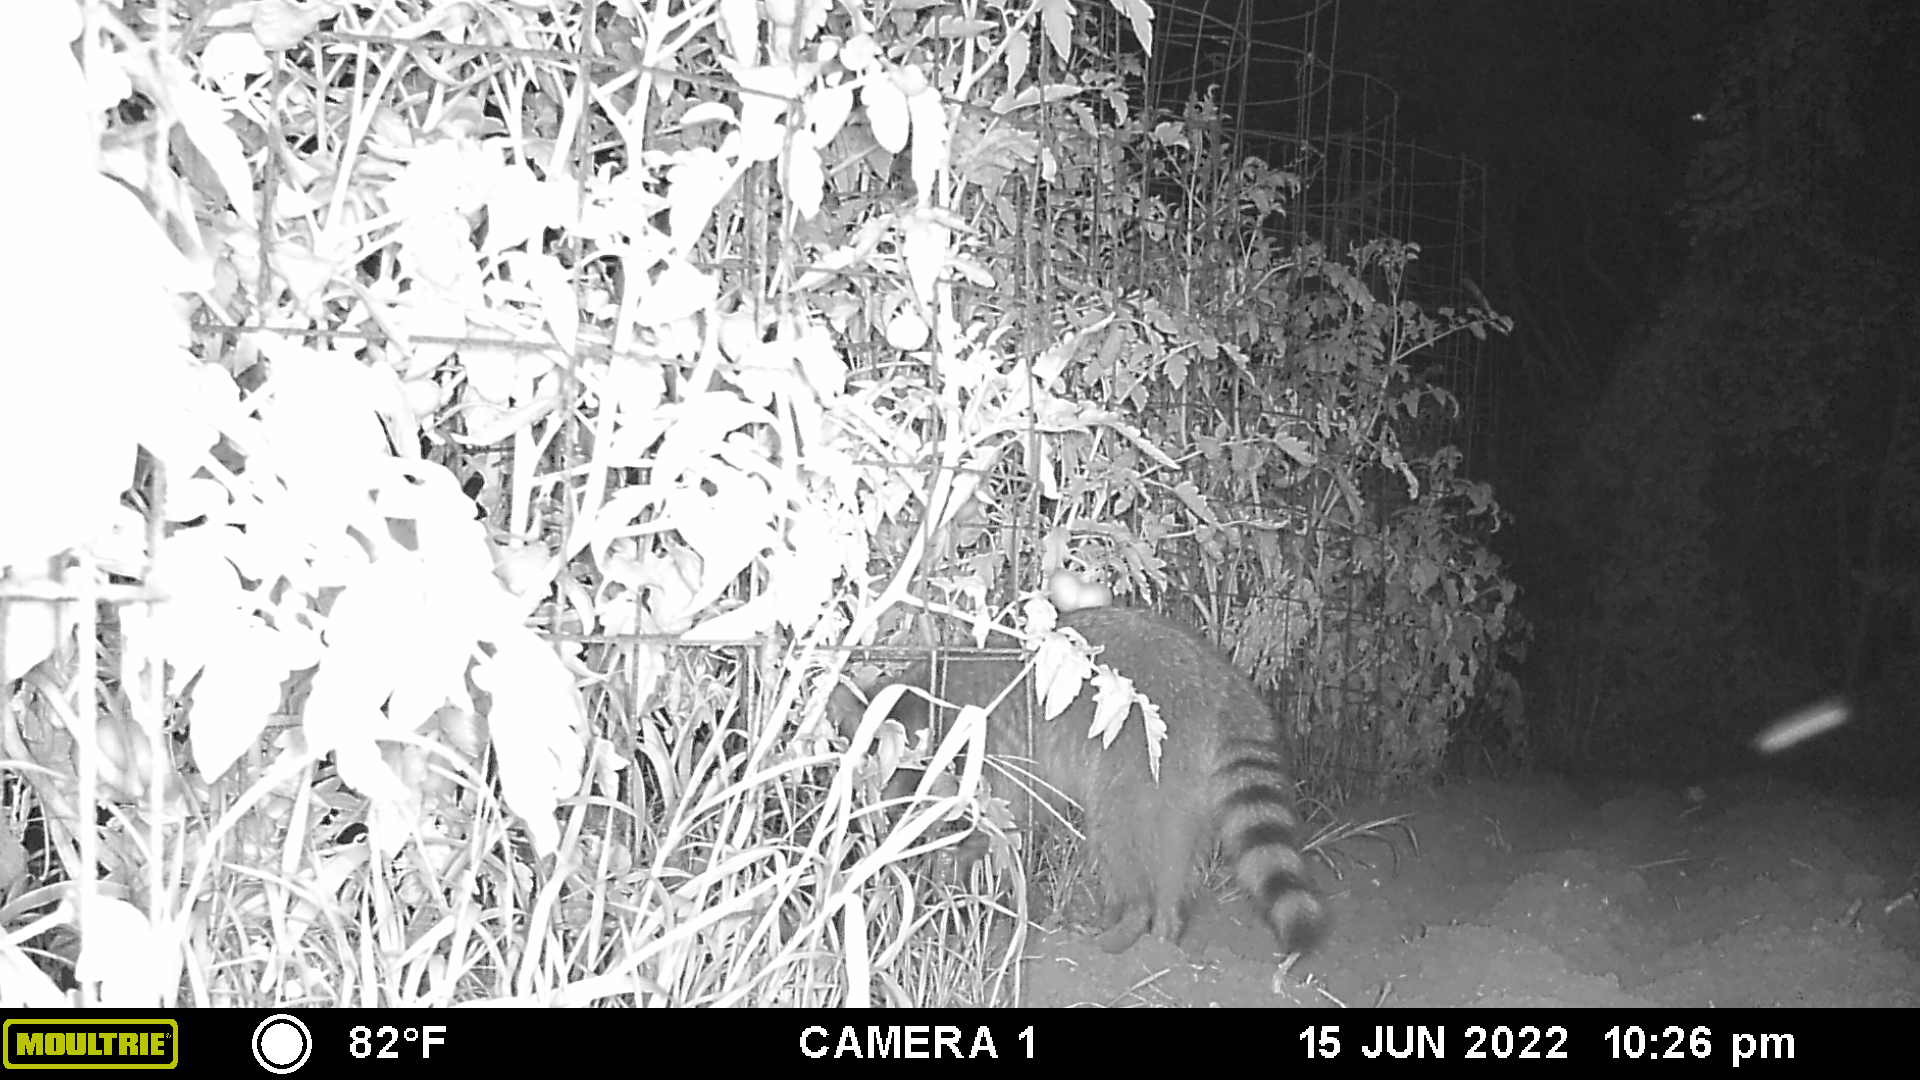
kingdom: Animalia
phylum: Chordata
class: Mammalia
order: Carnivora
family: Procyonidae
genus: Procyon
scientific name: Procyon lotor
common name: Raccoon
